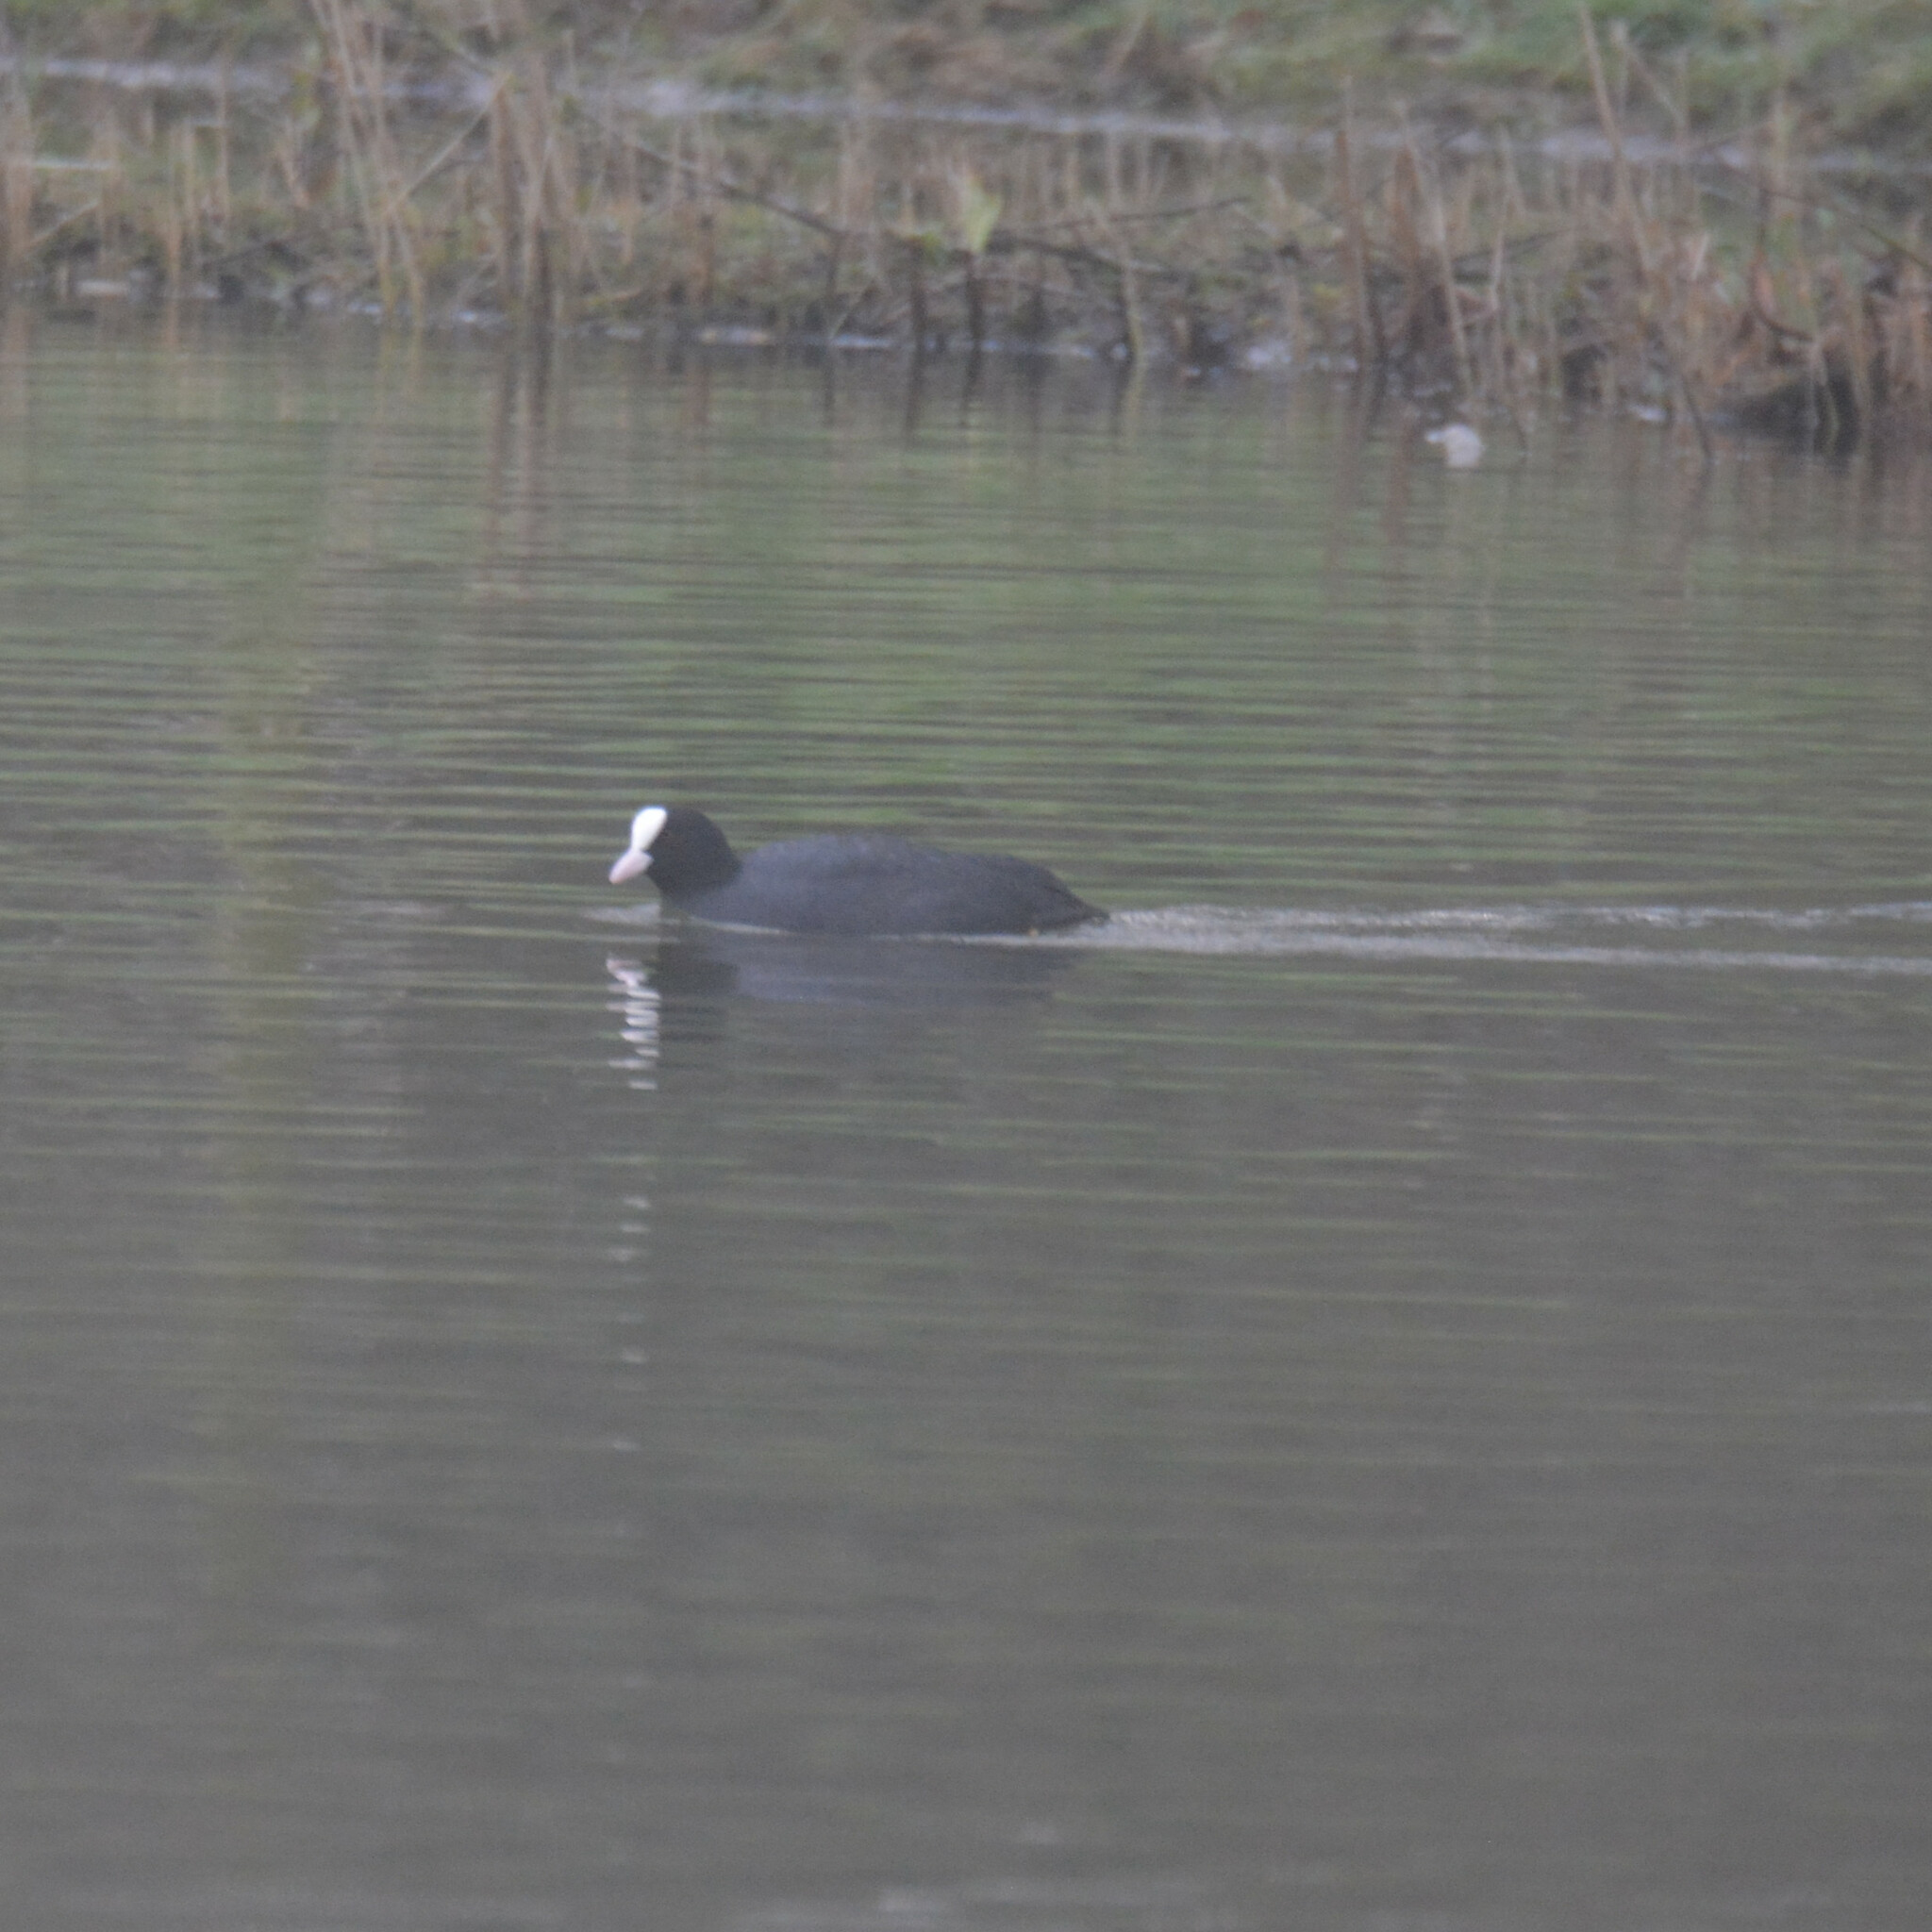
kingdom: Animalia
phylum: Chordata
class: Aves
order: Gruiformes
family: Rallidae
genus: Fulica
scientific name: Fulica atra
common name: Eurasian coot
